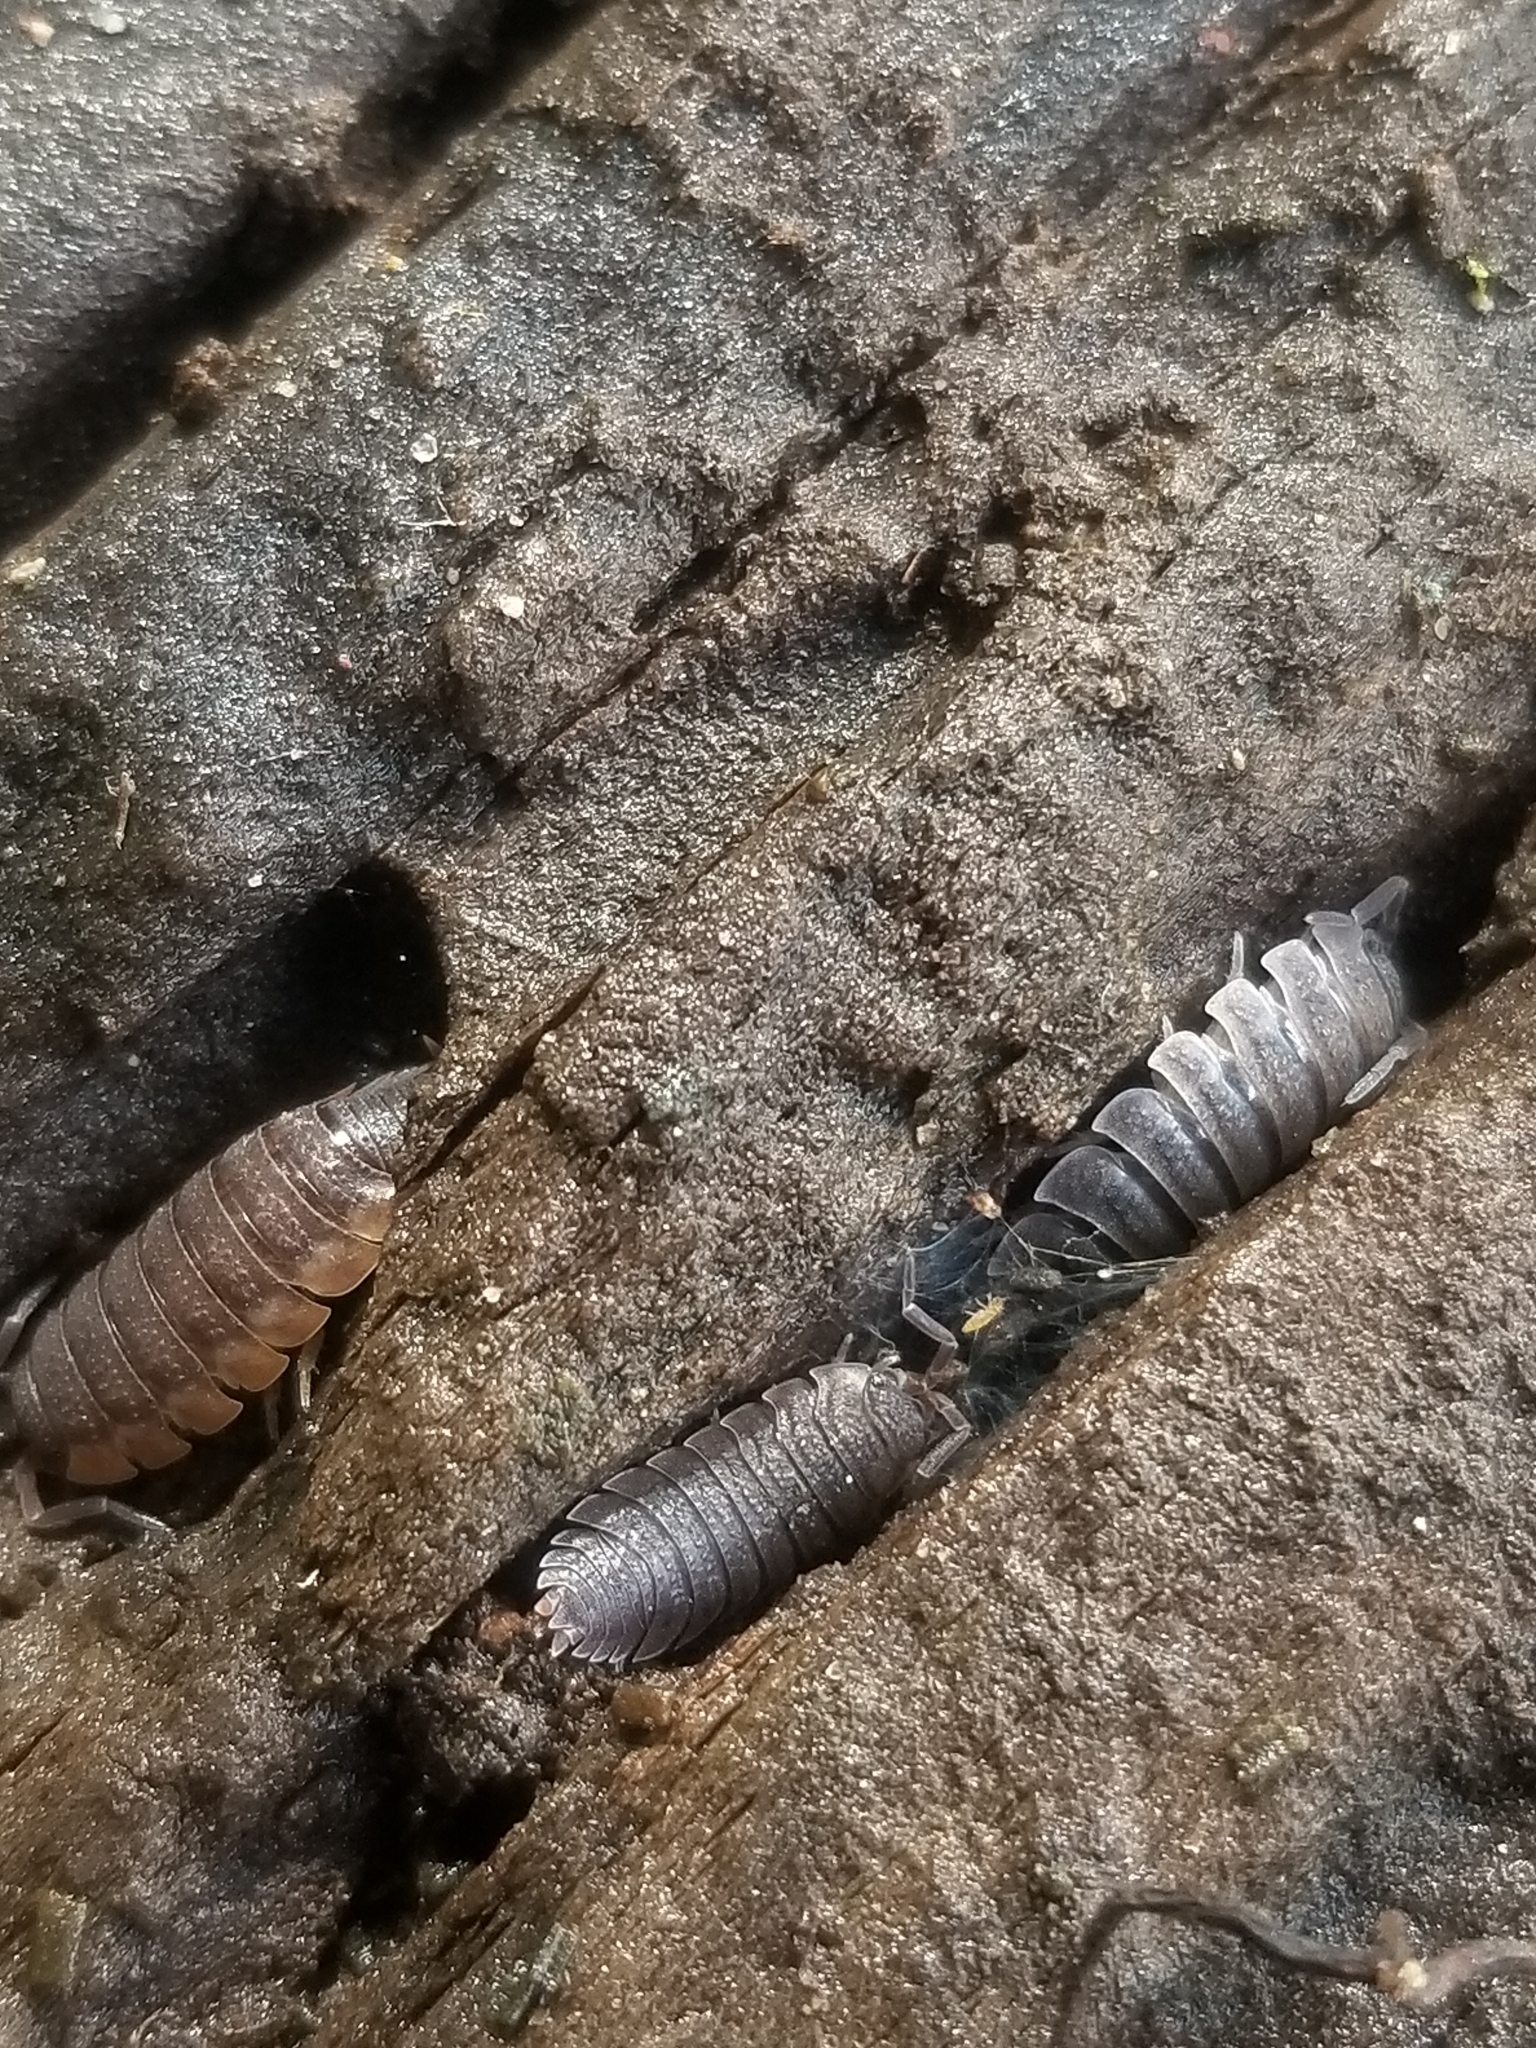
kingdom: Animalia
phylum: Arthropoda
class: Malacostraca
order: Isopoda
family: Porcellionidae
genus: Porcellio
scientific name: Porcellio scaber
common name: Common rough woodlouse
